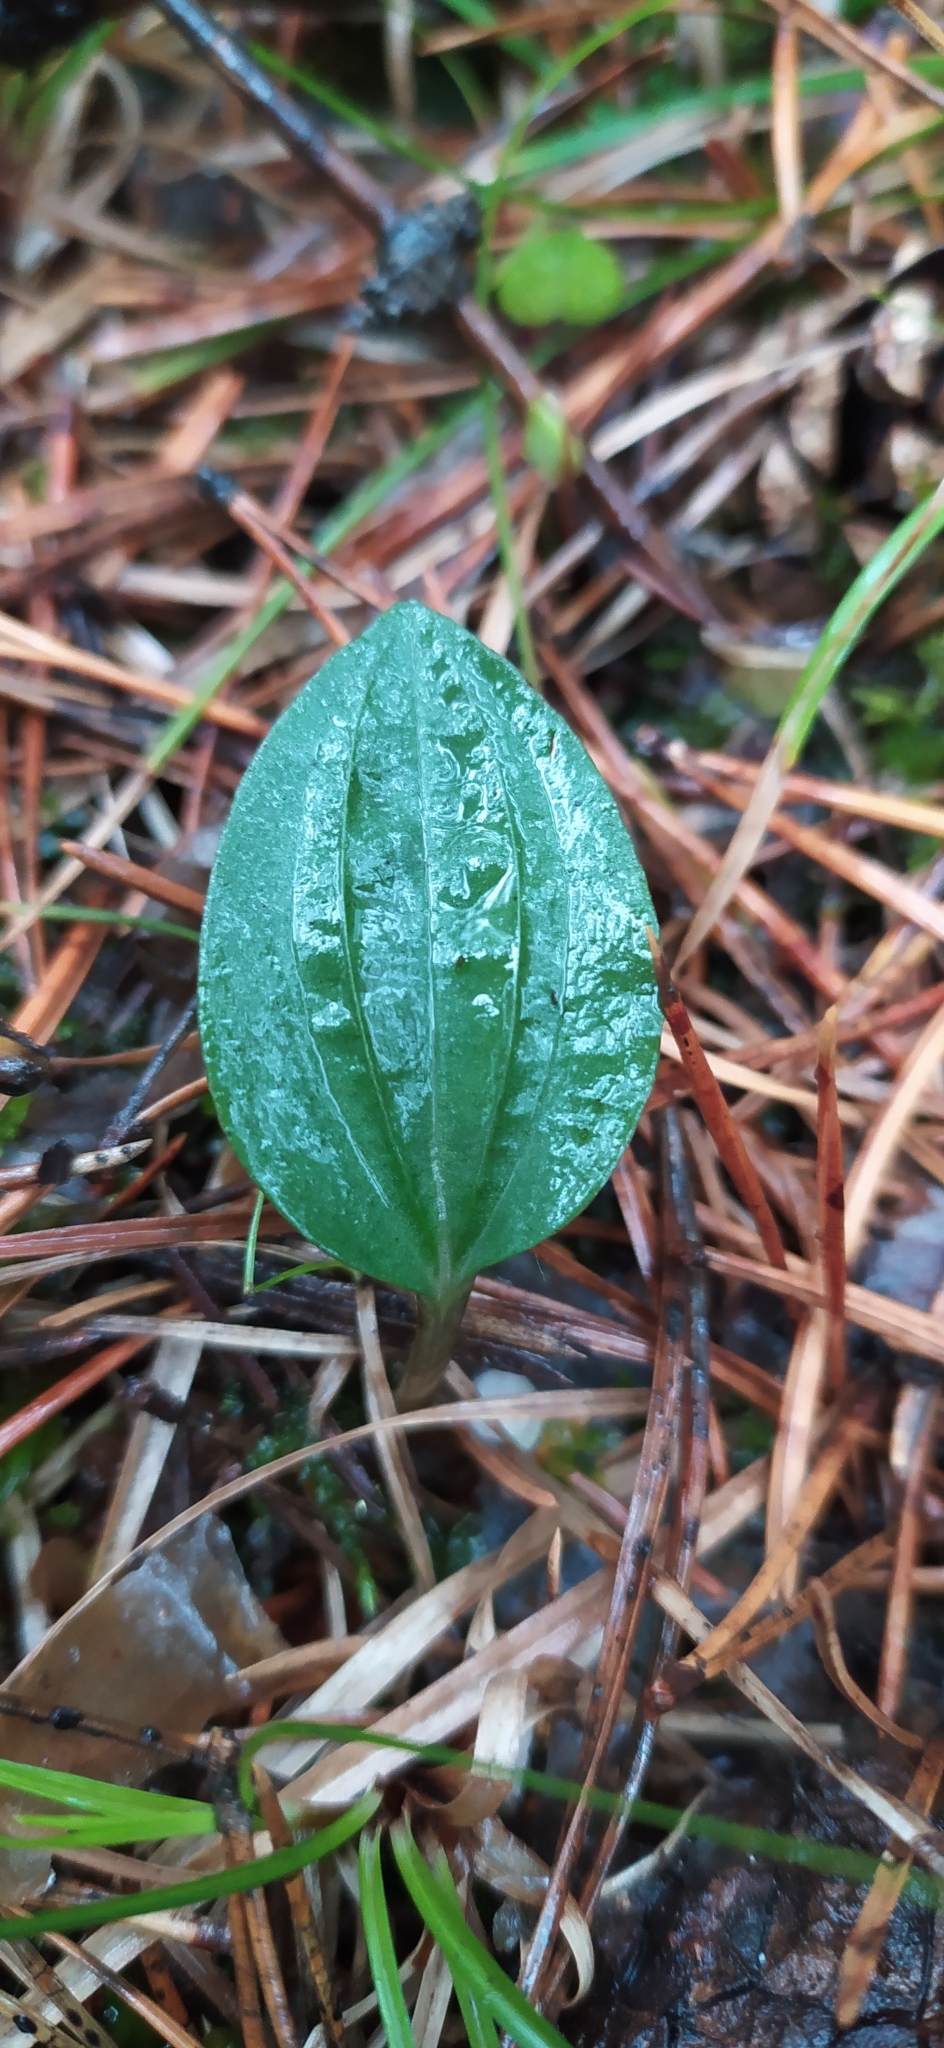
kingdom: Plantae
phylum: Tracheophyta
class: Liliopsida
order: Asparagales
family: Orchidaceae
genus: Calypso
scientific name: Calypso bulbosa
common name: Calypso
